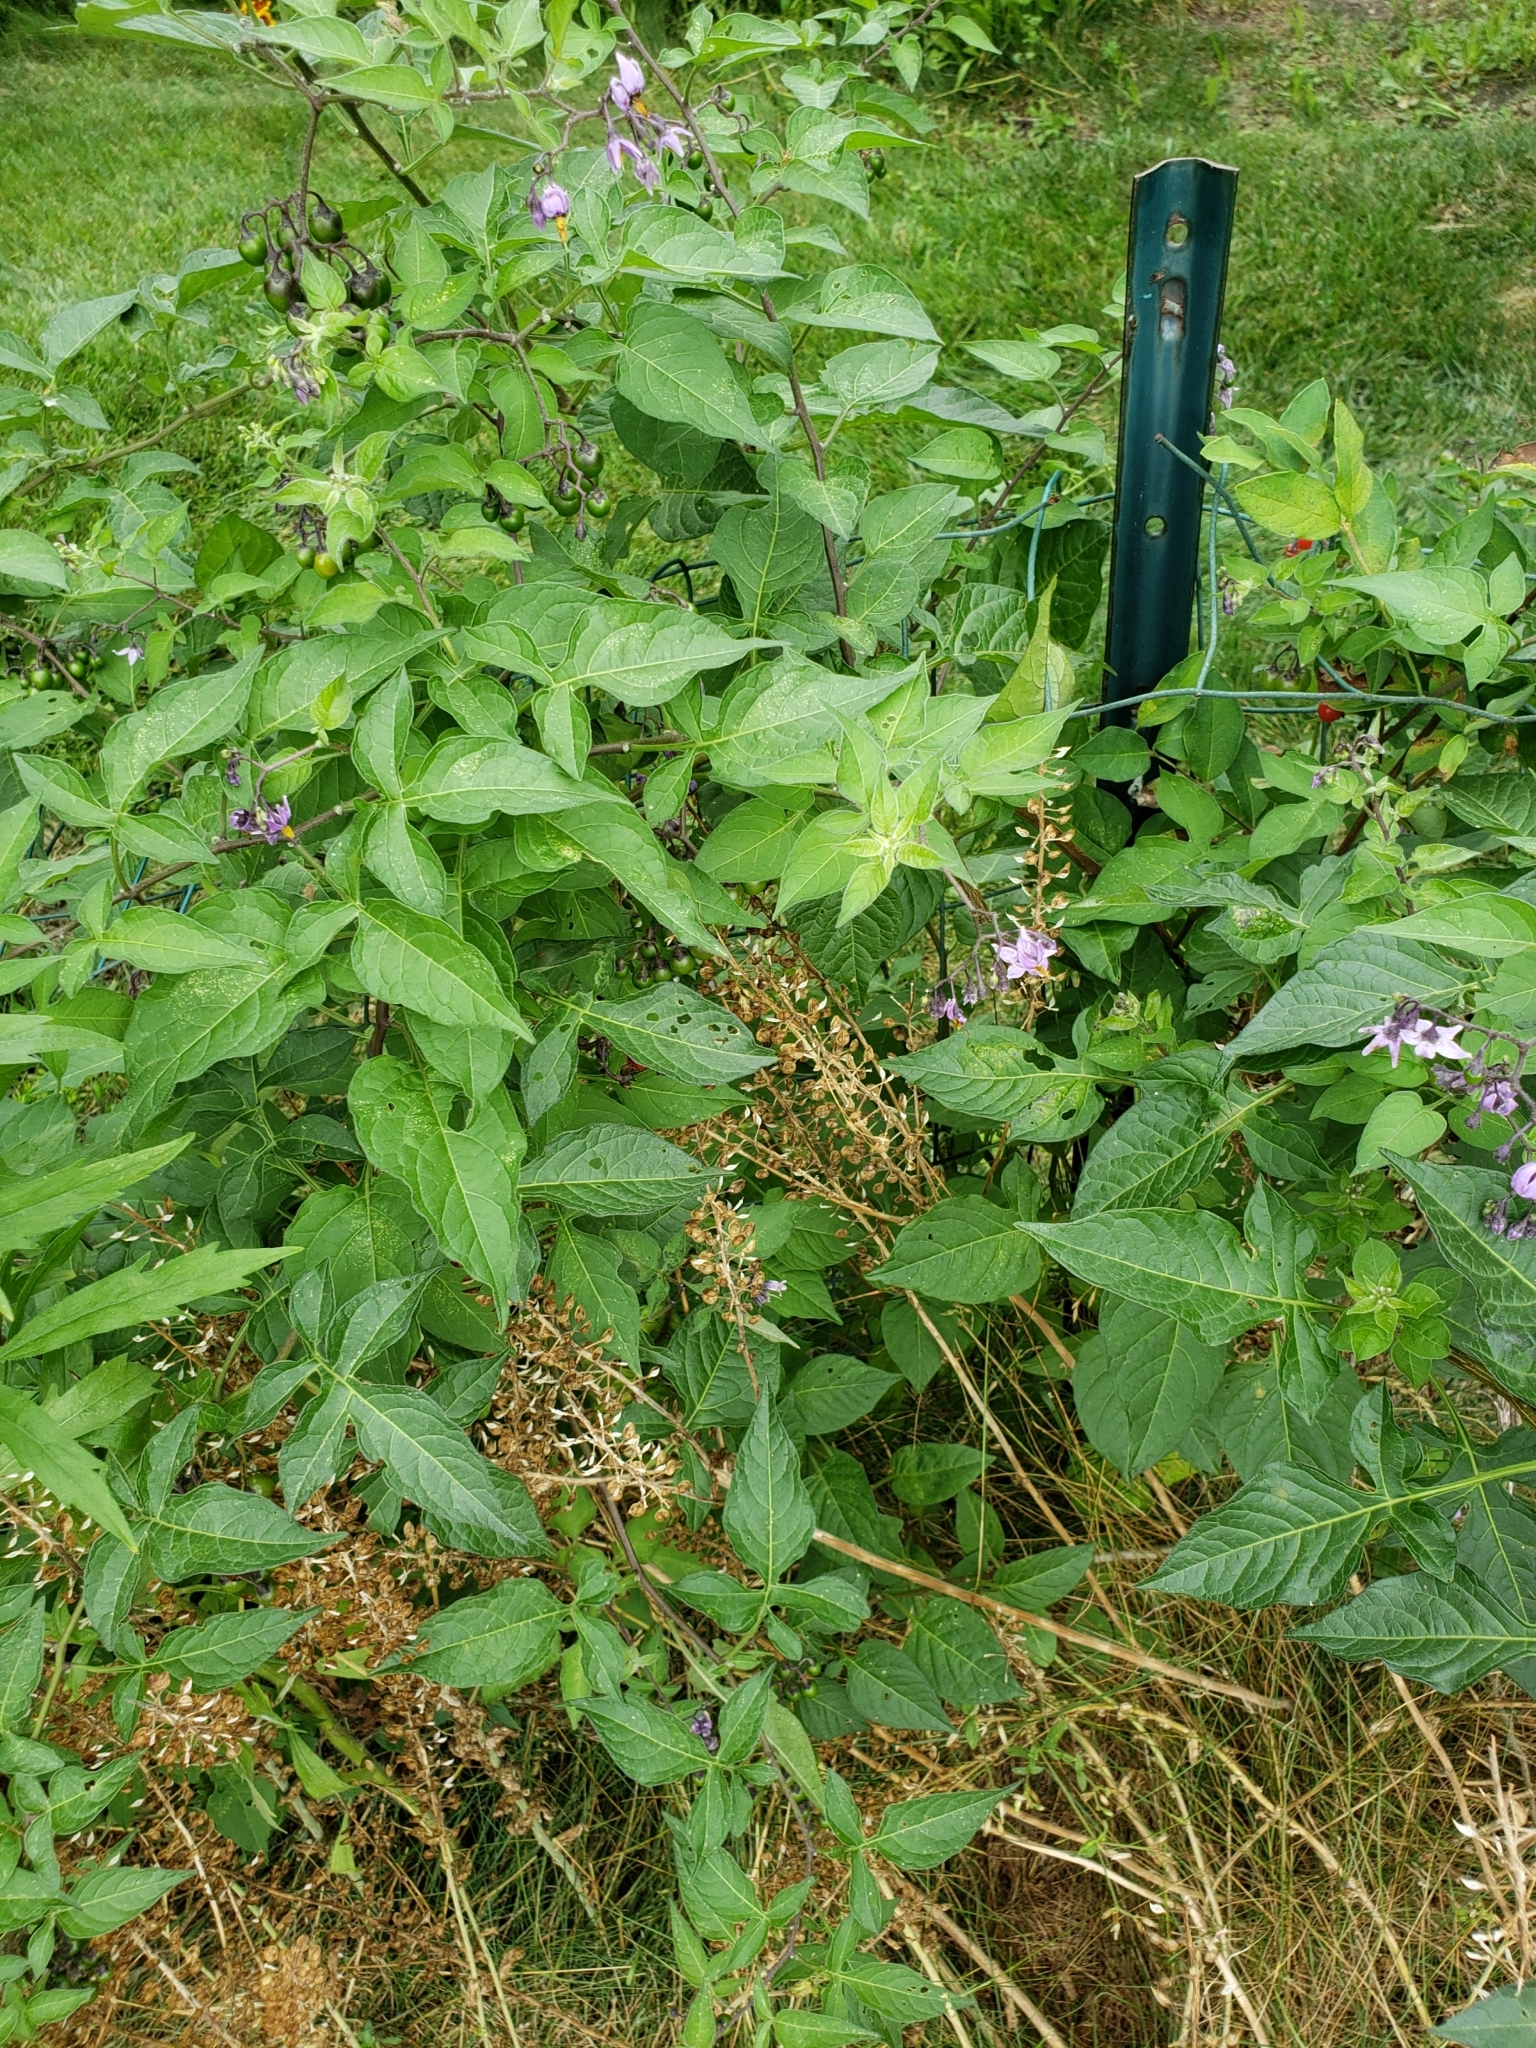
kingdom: Plantae
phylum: Tracheophyta
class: Magnoliopsida
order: Solanales
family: Solanaceae
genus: Solanum
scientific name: Solanum dulcamara
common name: Climbing nightshade
